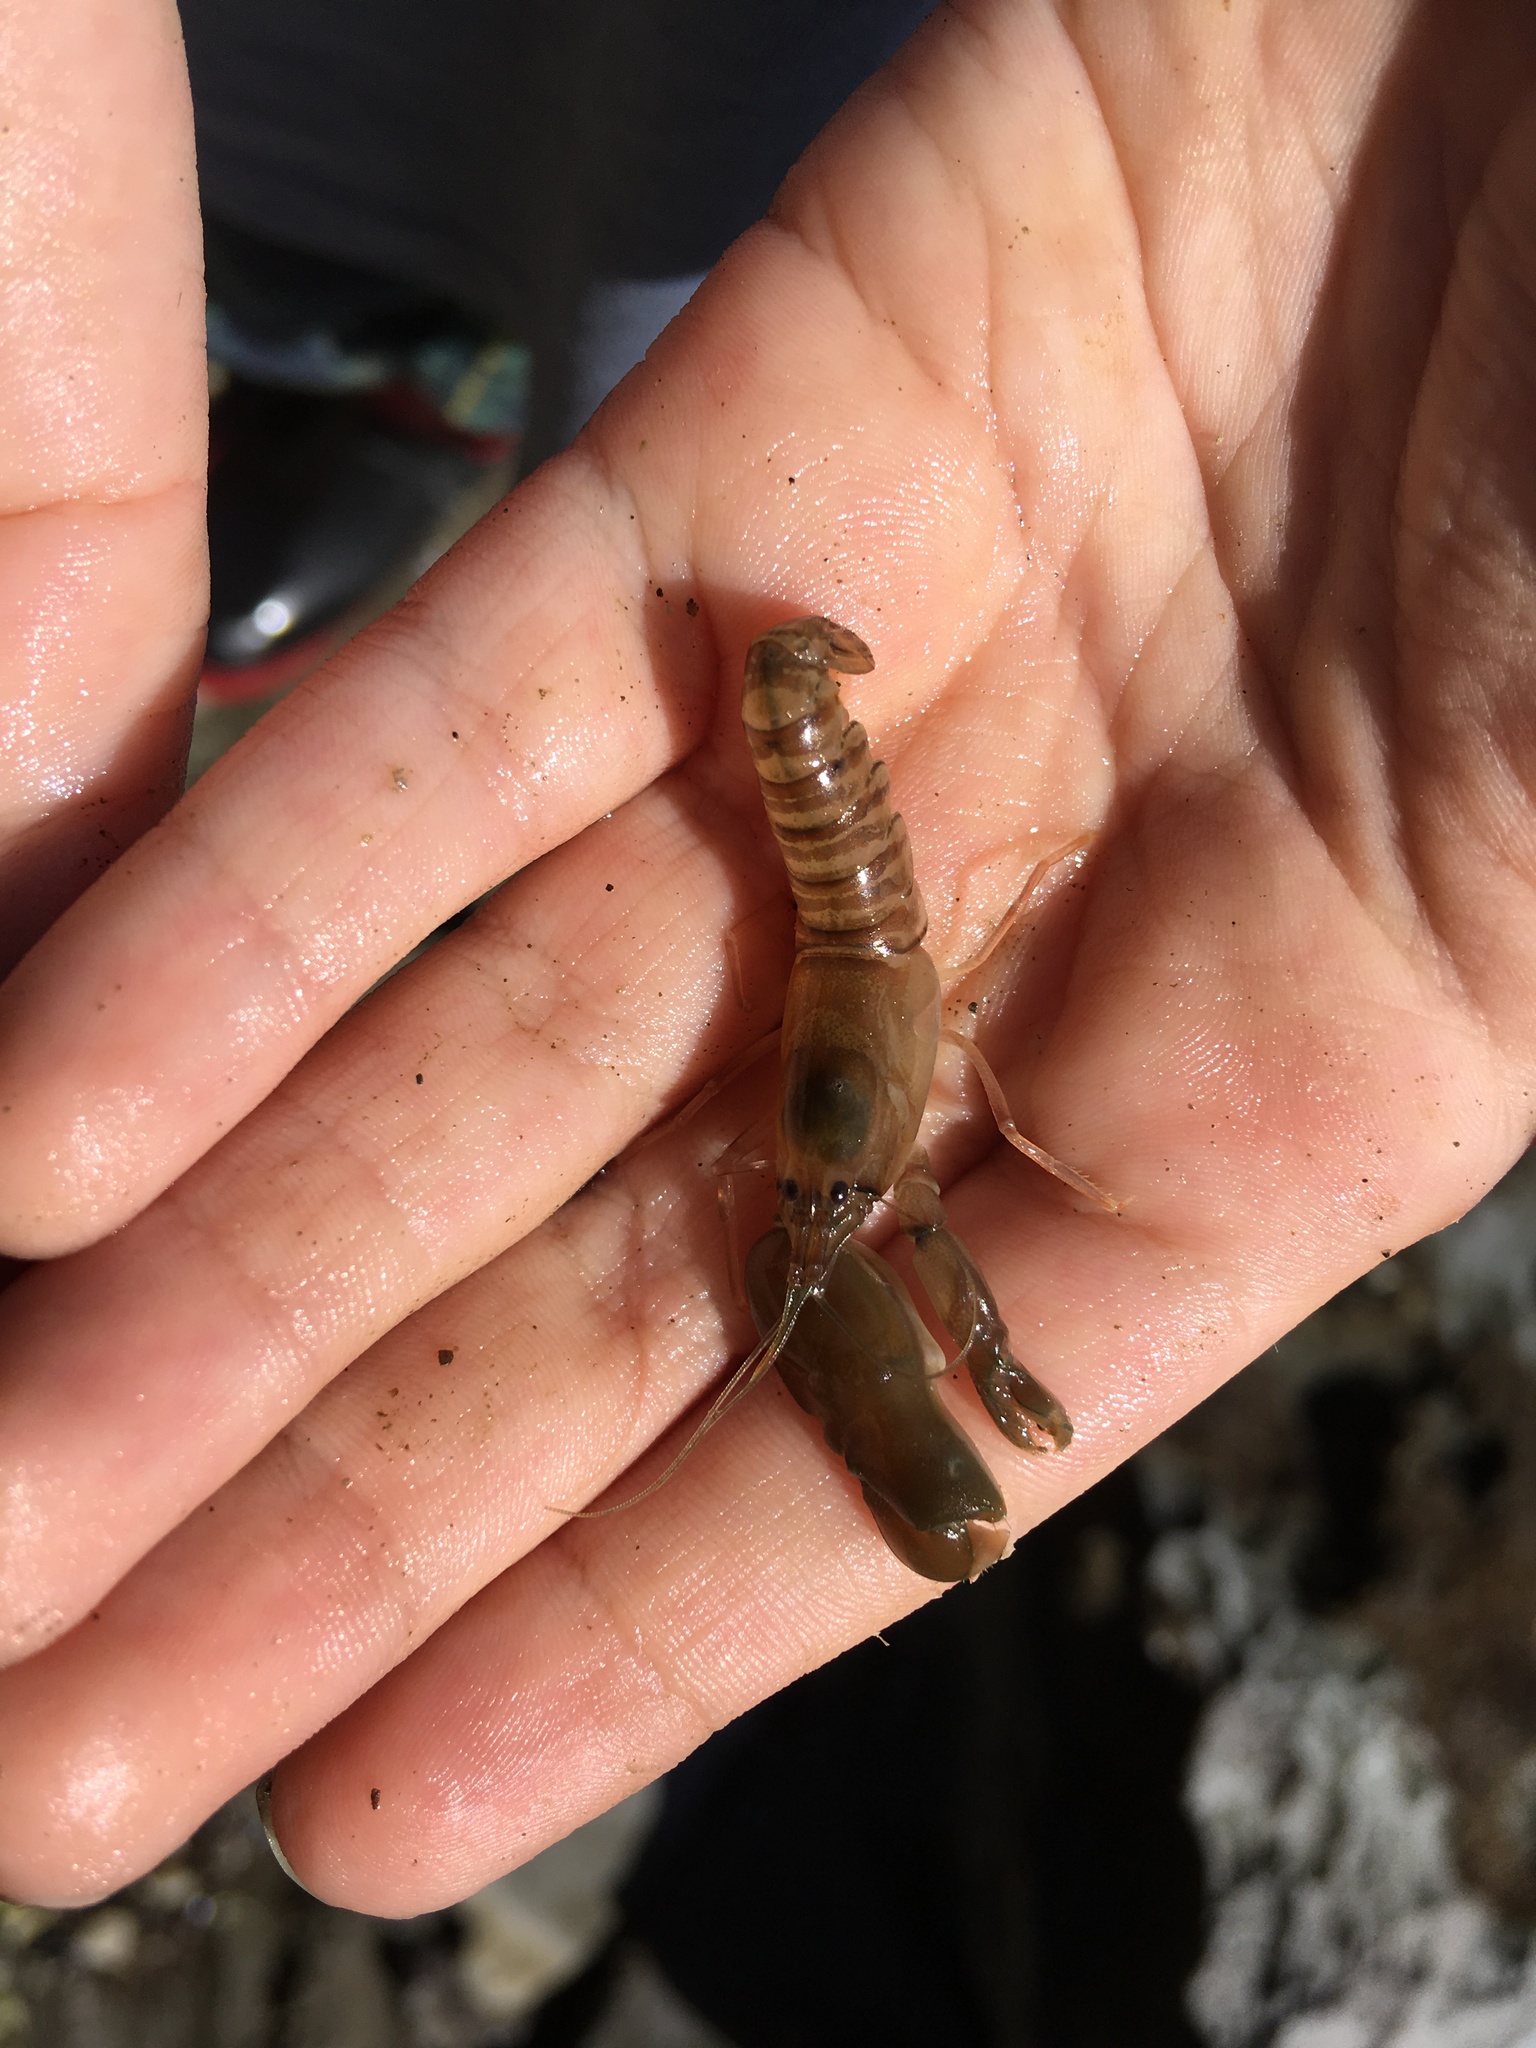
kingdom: Animalia
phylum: Arthropoda
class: Malacostraca
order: Decapoda
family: Alpheidae
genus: Alpheus
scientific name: Alpheus richardsoni
